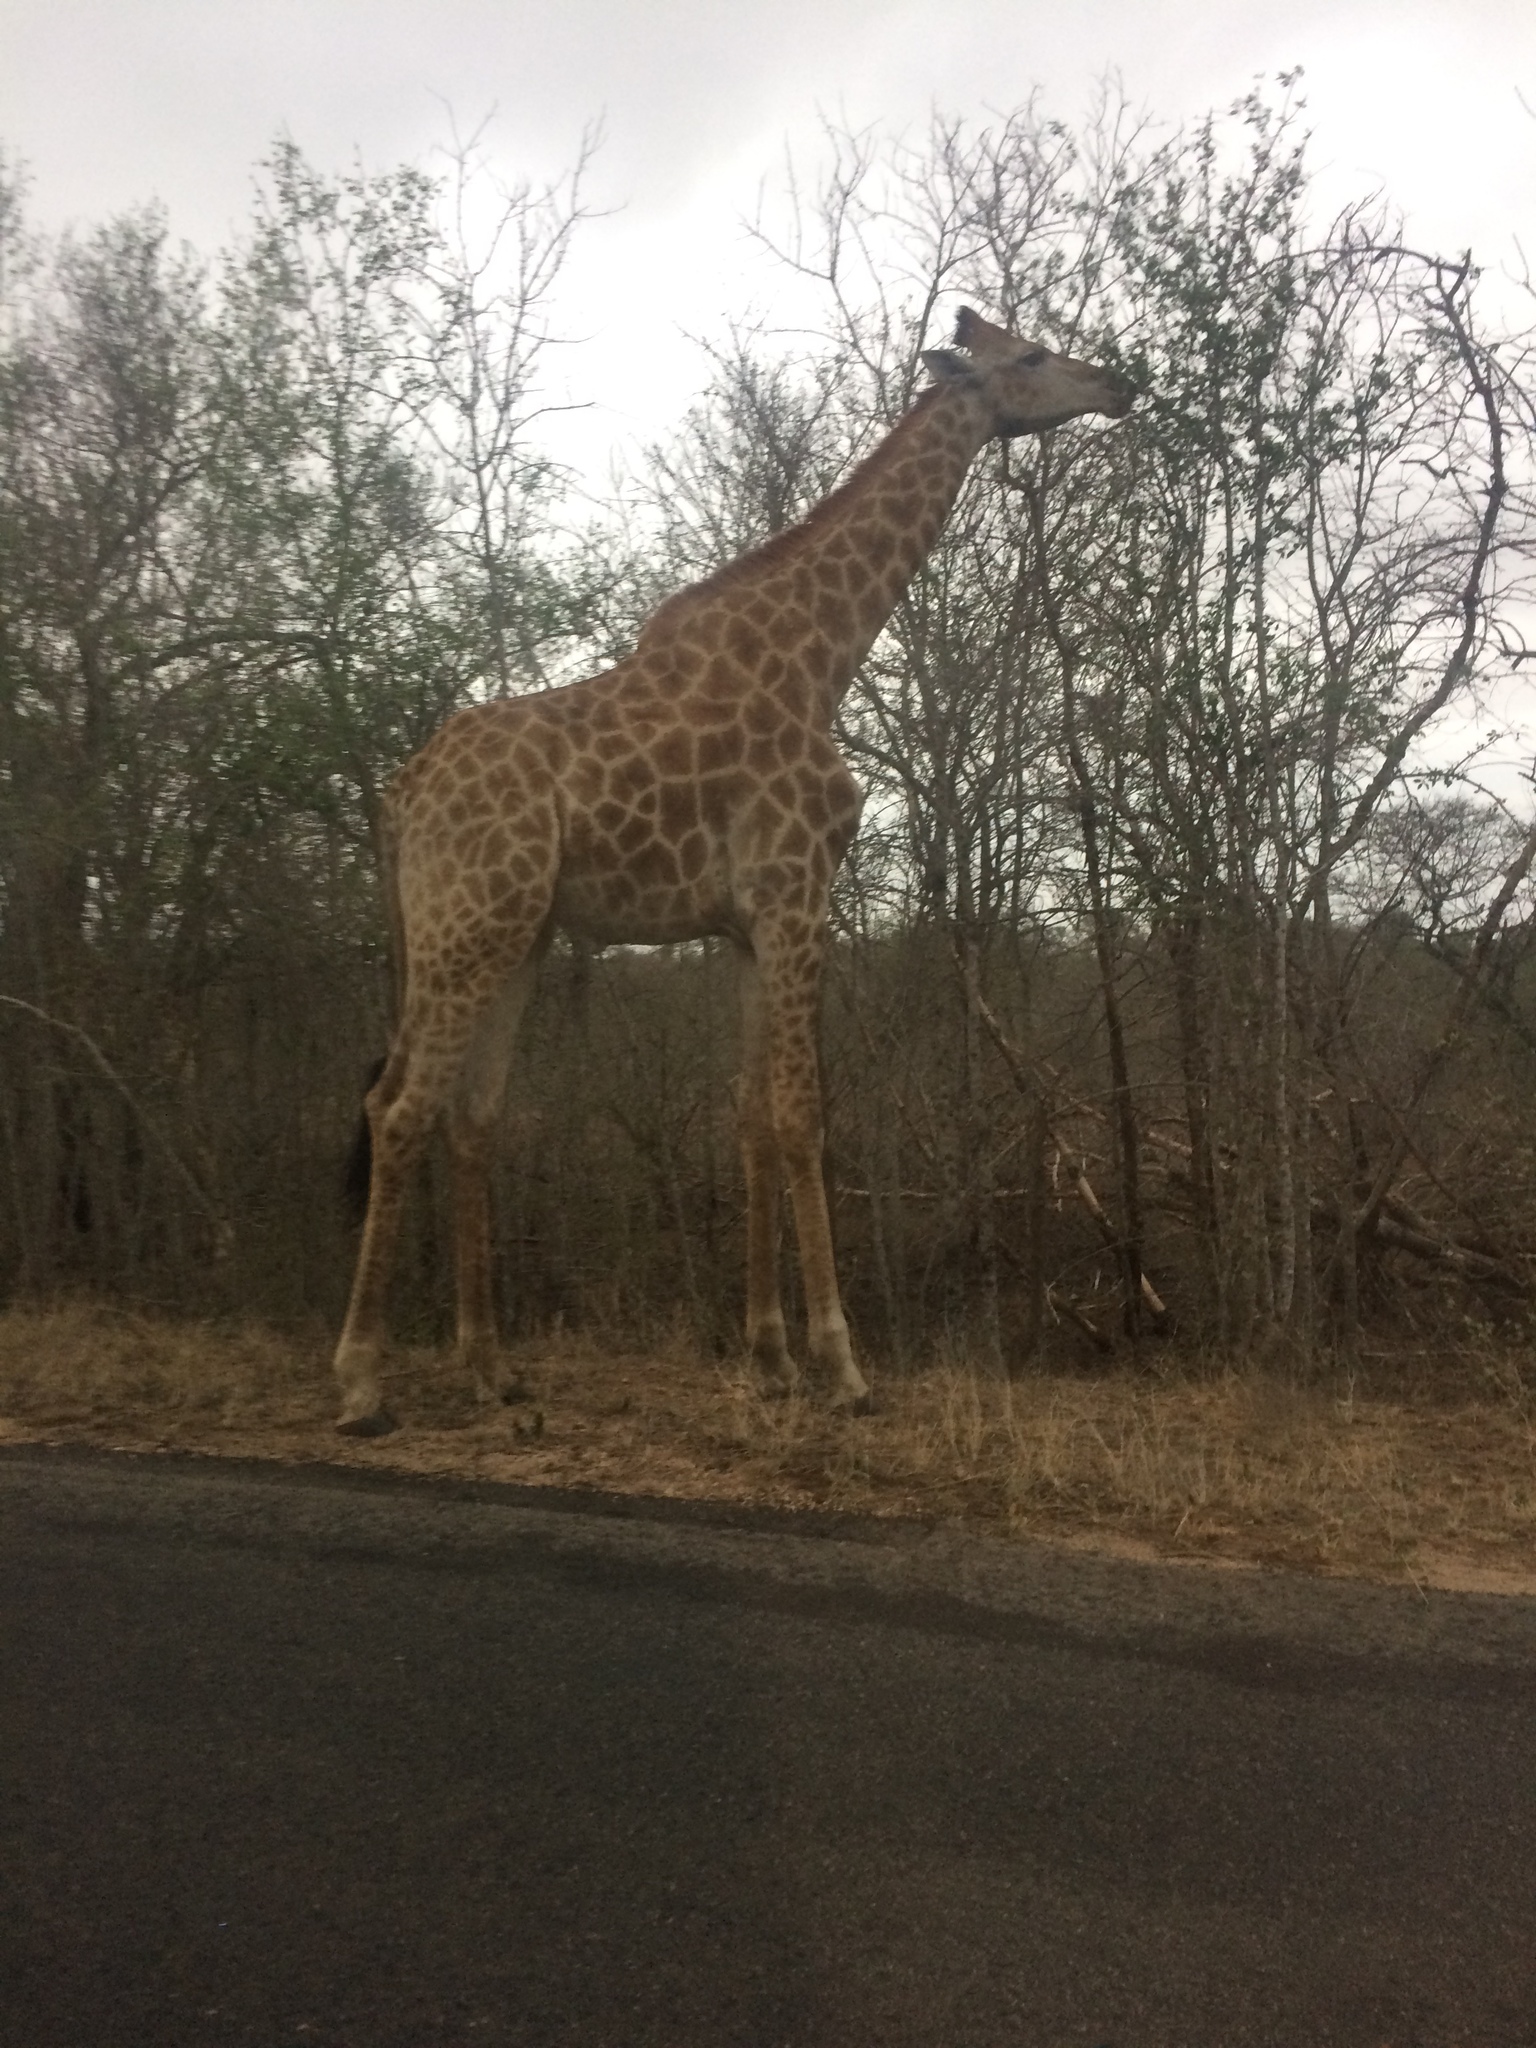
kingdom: Animalia
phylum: Chordata
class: Mammalia
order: Artiodactyla
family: Giraffidae
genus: Giraffa
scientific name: Giraffa giraffa
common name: Southern giraffe
